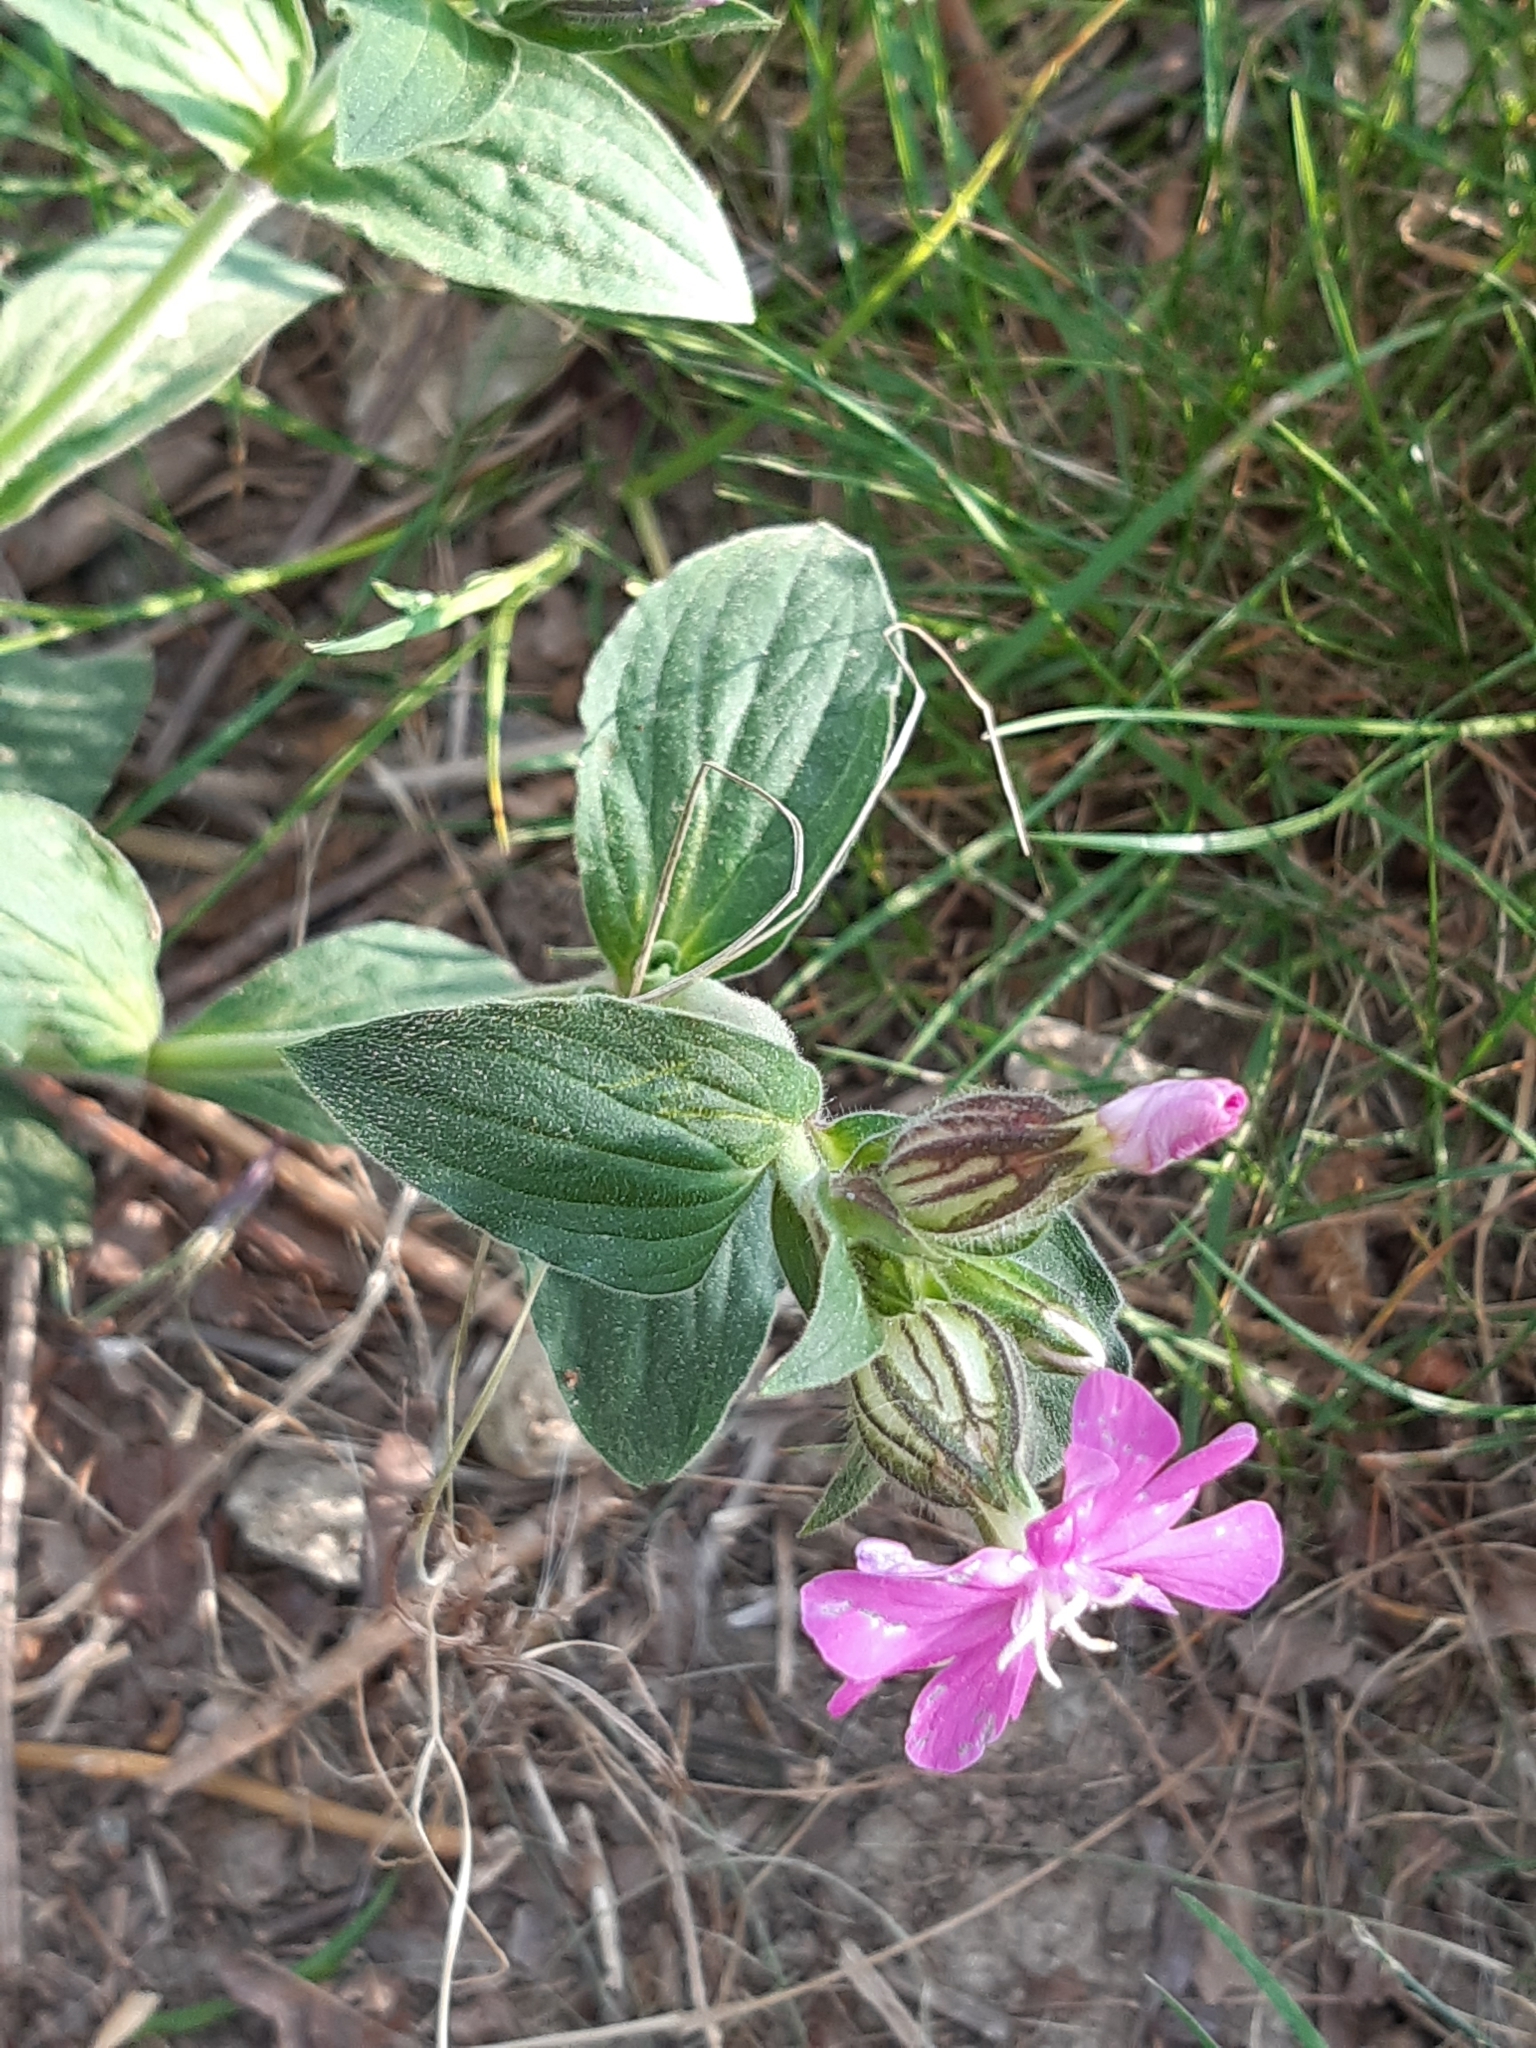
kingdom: Plantae
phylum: Tracheophyta
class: Magnoliopsida
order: Caryophyllales
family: Caryophyllaceae
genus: Silene
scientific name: Silene dioica
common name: Red campion
